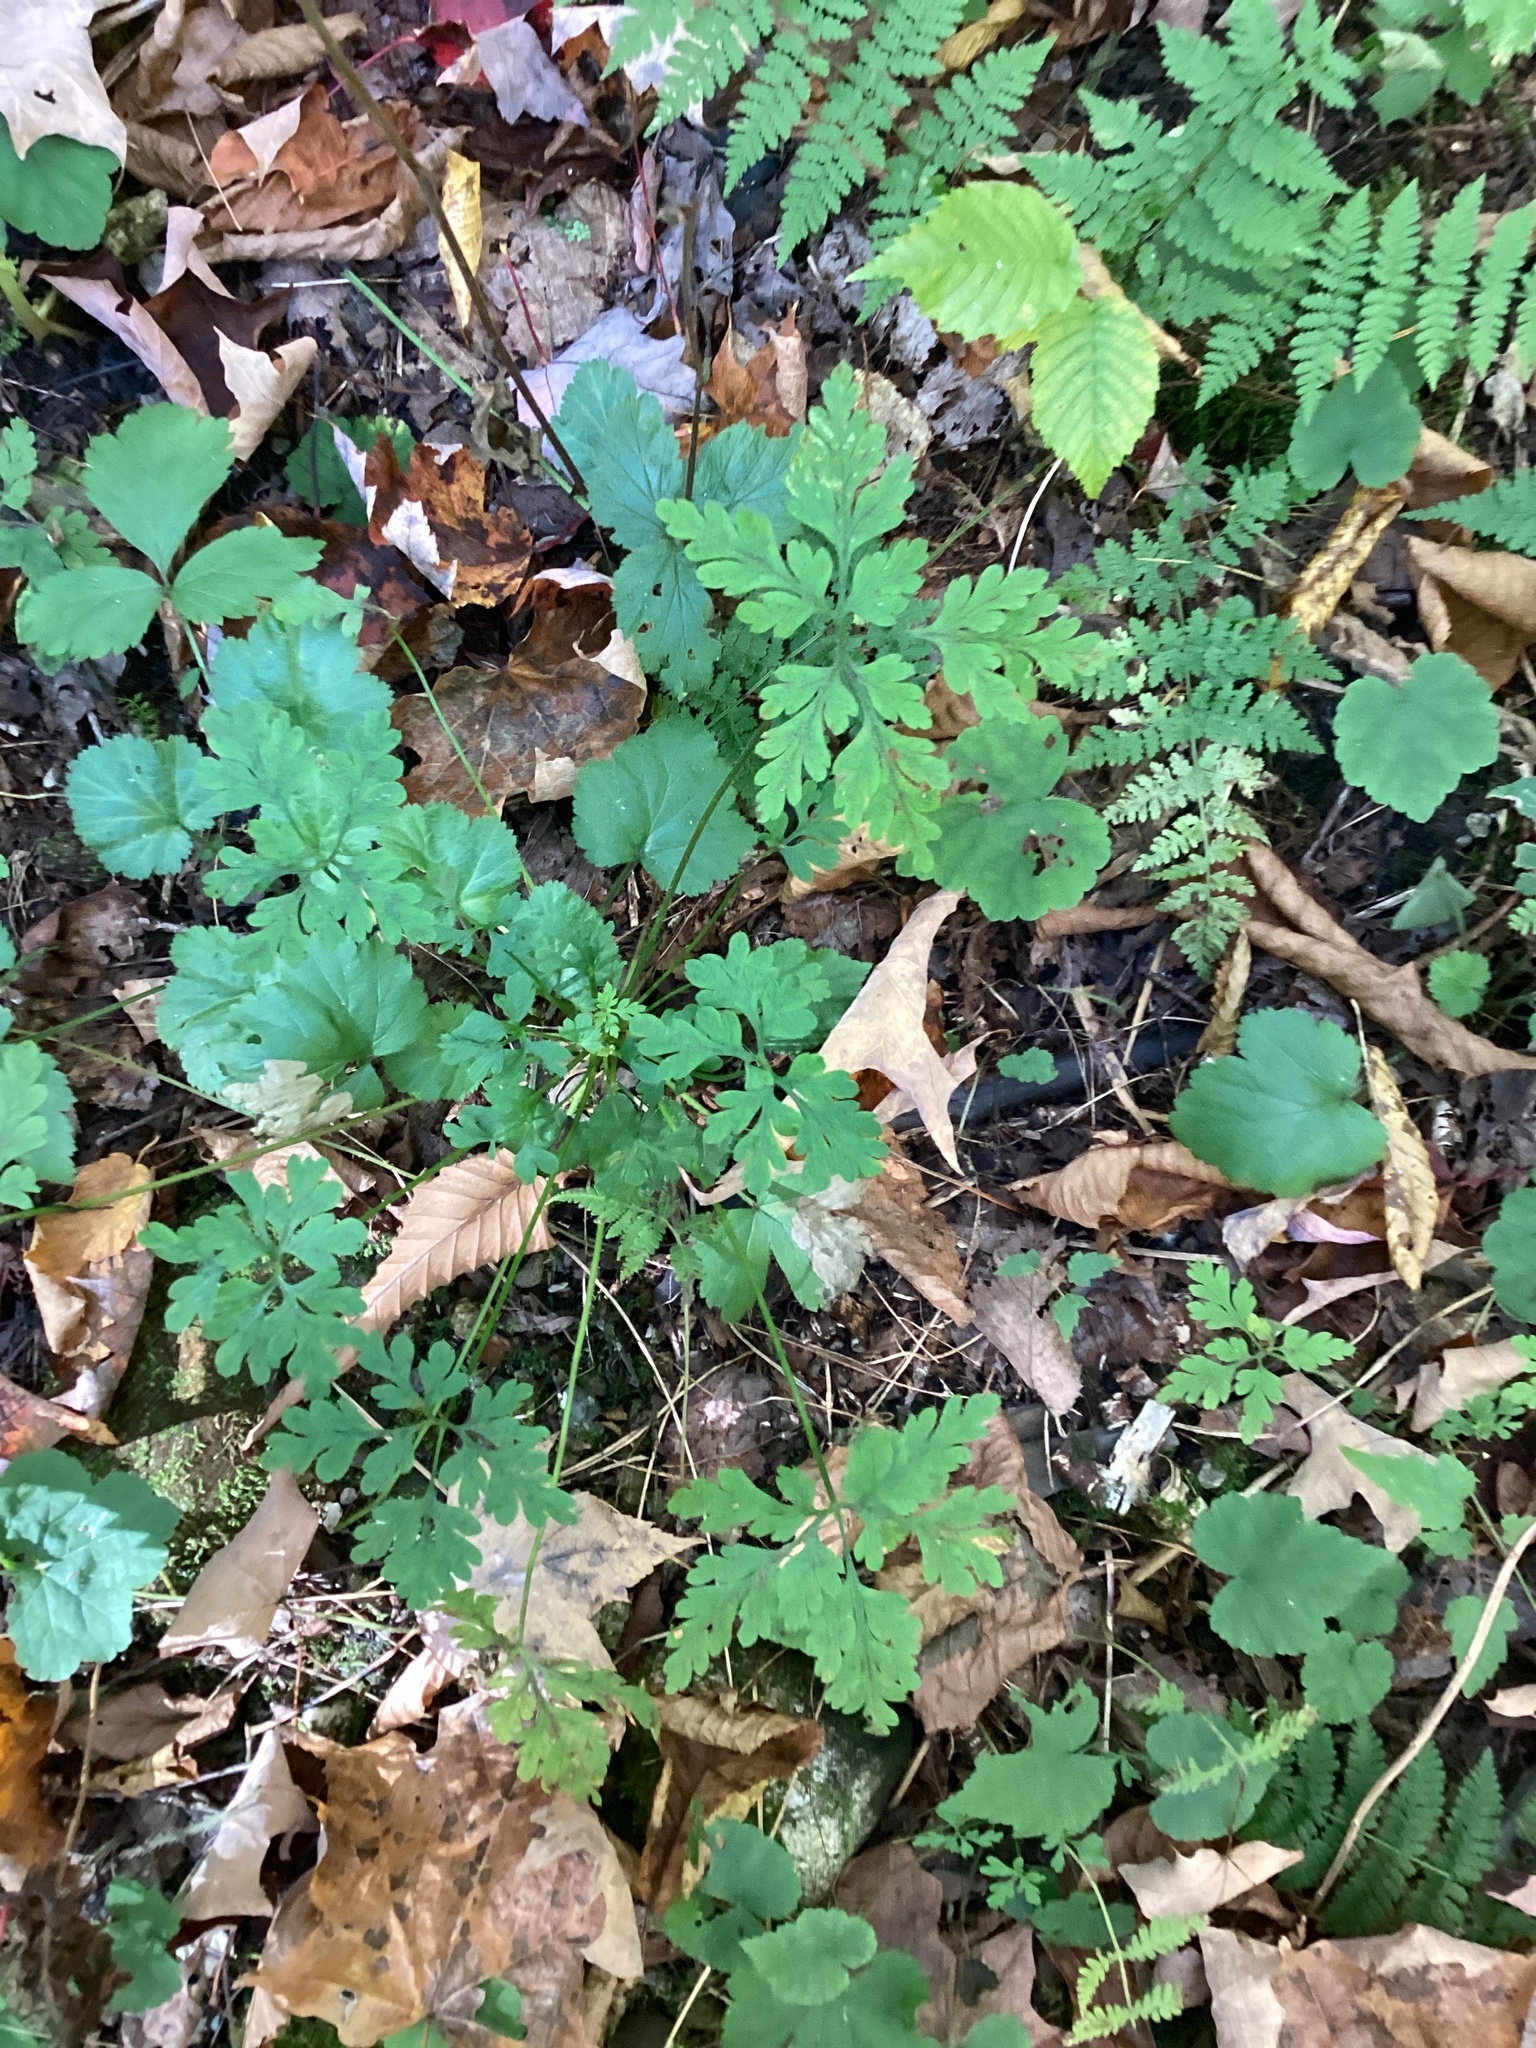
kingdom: Plantae
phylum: Tracheophyta
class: Magnoliopsida
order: Geraniales
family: Geraniaceae
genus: Geranium
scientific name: Geranium robertianum
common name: Herb-robert
